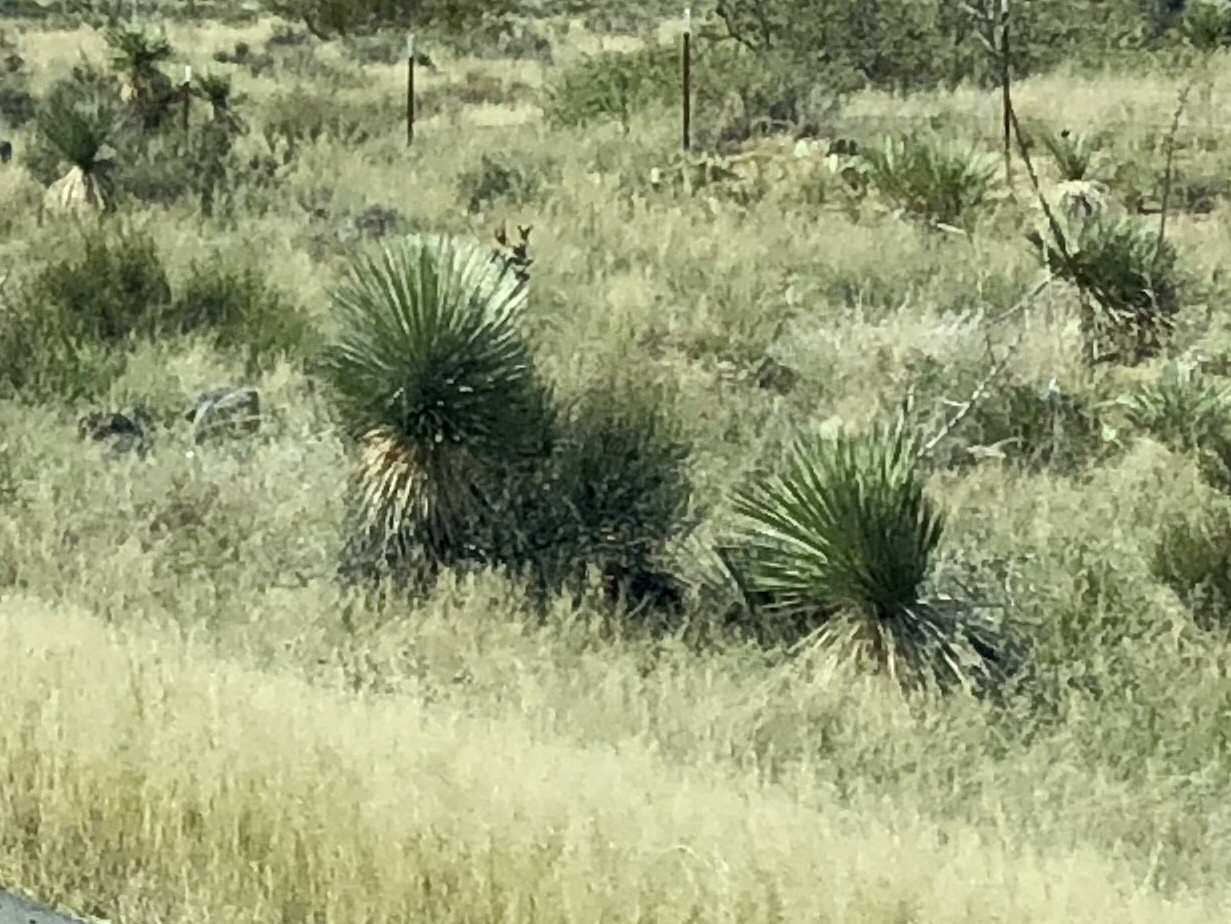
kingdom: Plantae
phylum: Tracheophyta
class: Liliopsida
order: Asparagales
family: Asparagaceae
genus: Yucca
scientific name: Yucca elata
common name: Palmella
